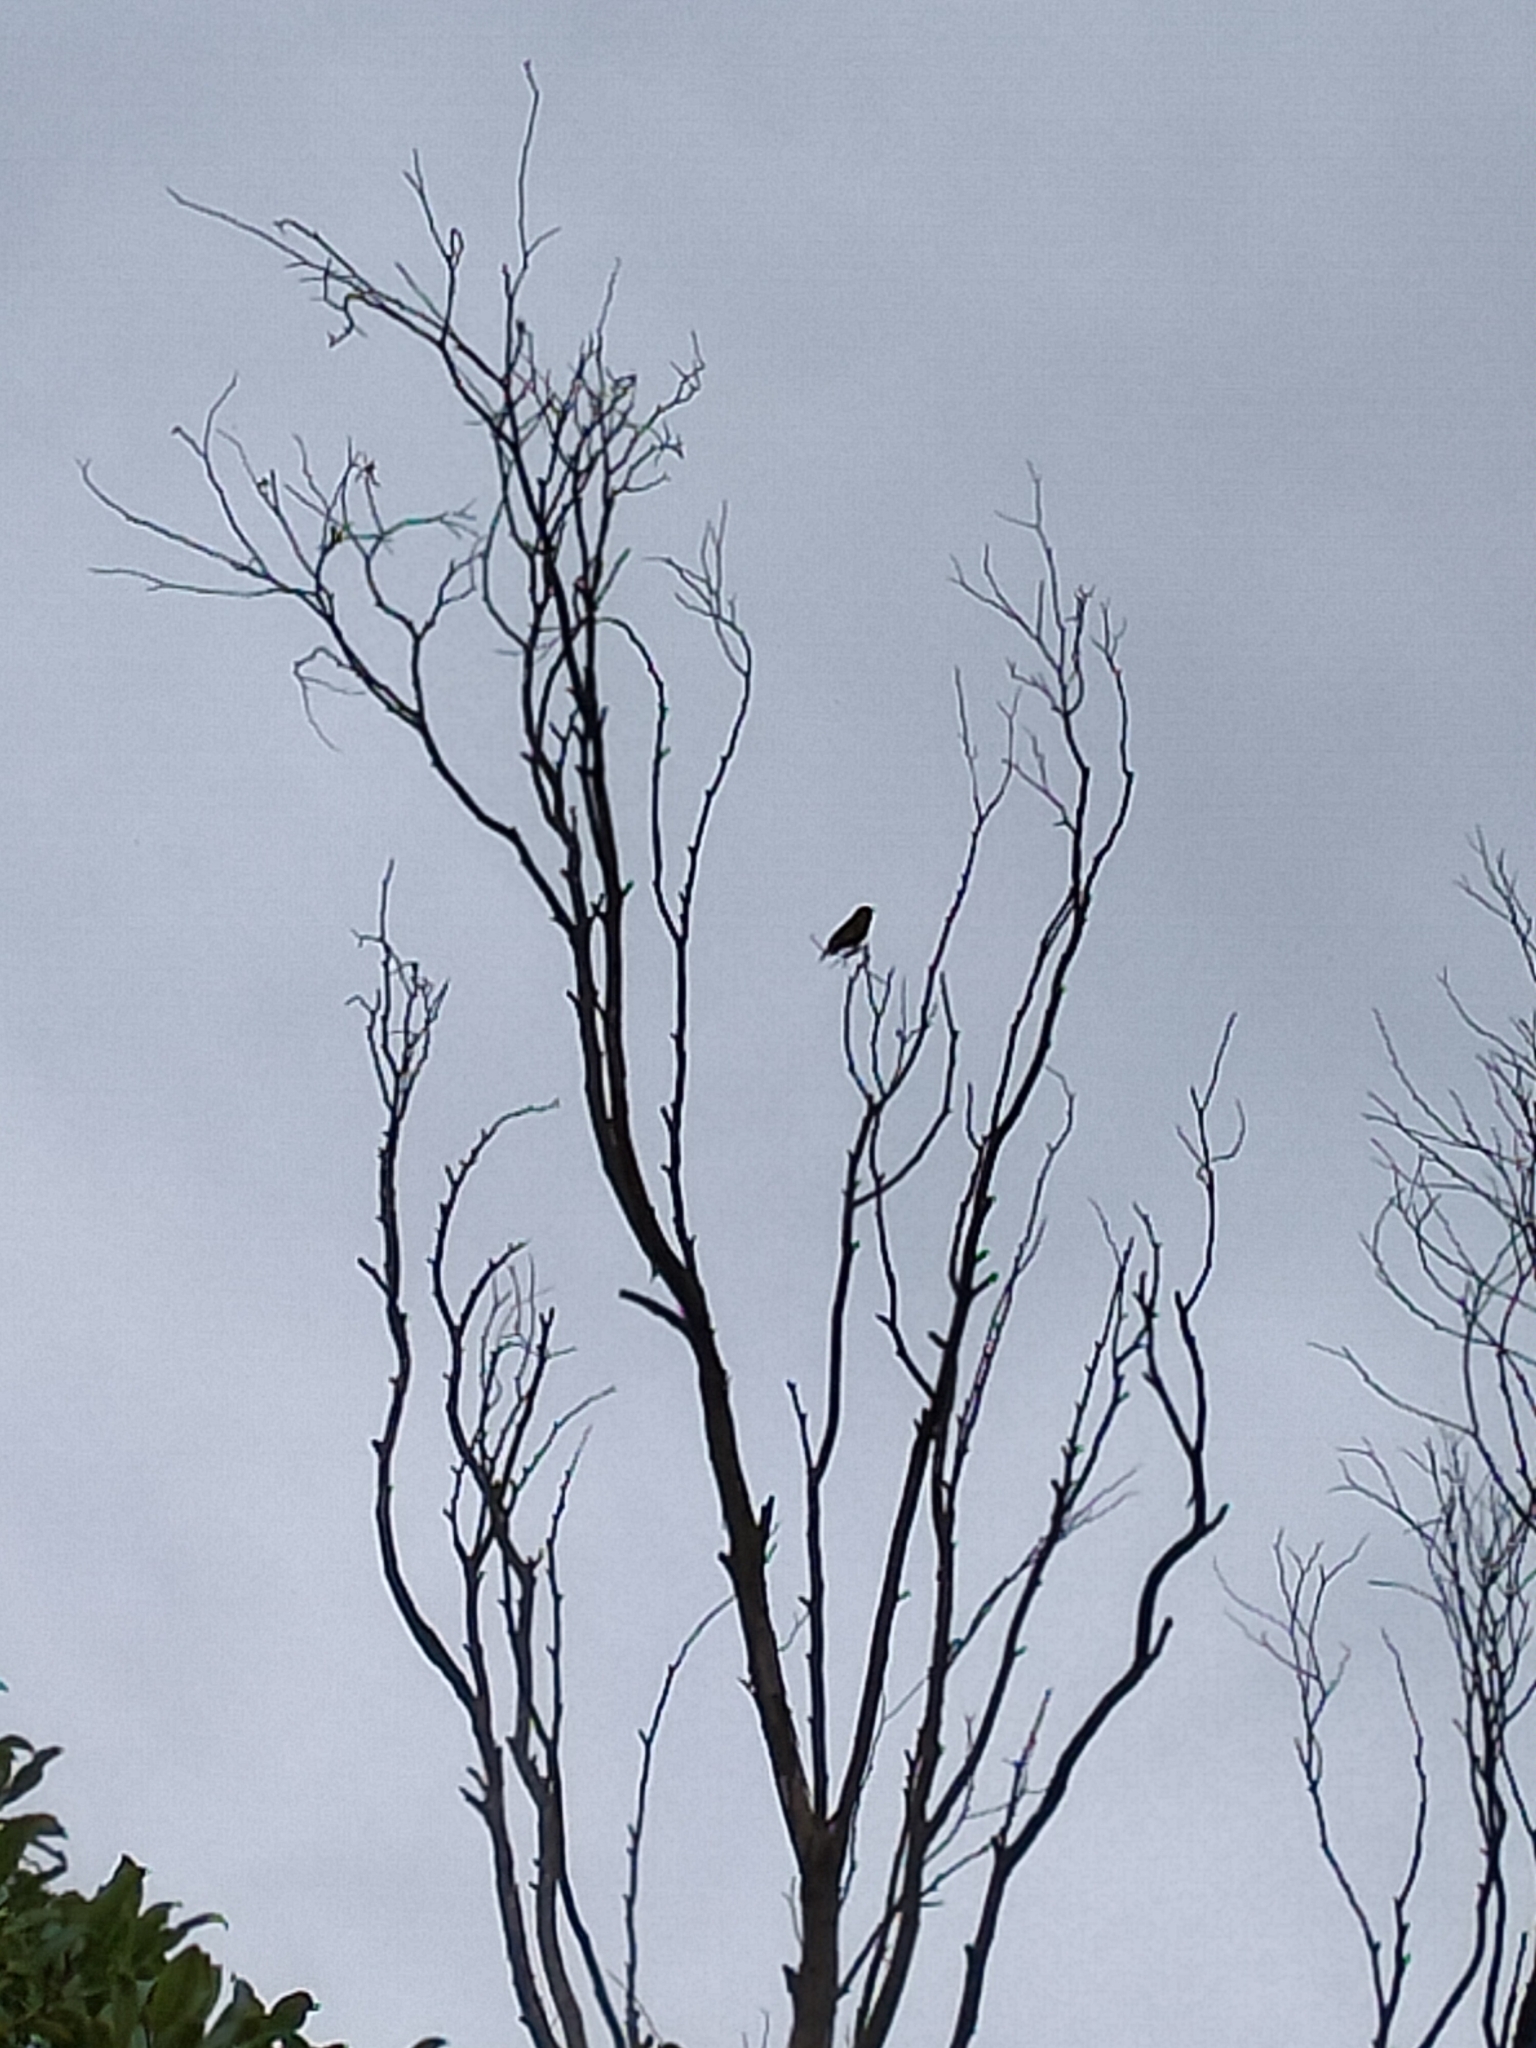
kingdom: Plantae
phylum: Tracheophyta
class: Liliopsida
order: Poales
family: Poaceae
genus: Chloris
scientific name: Chloris chloris
